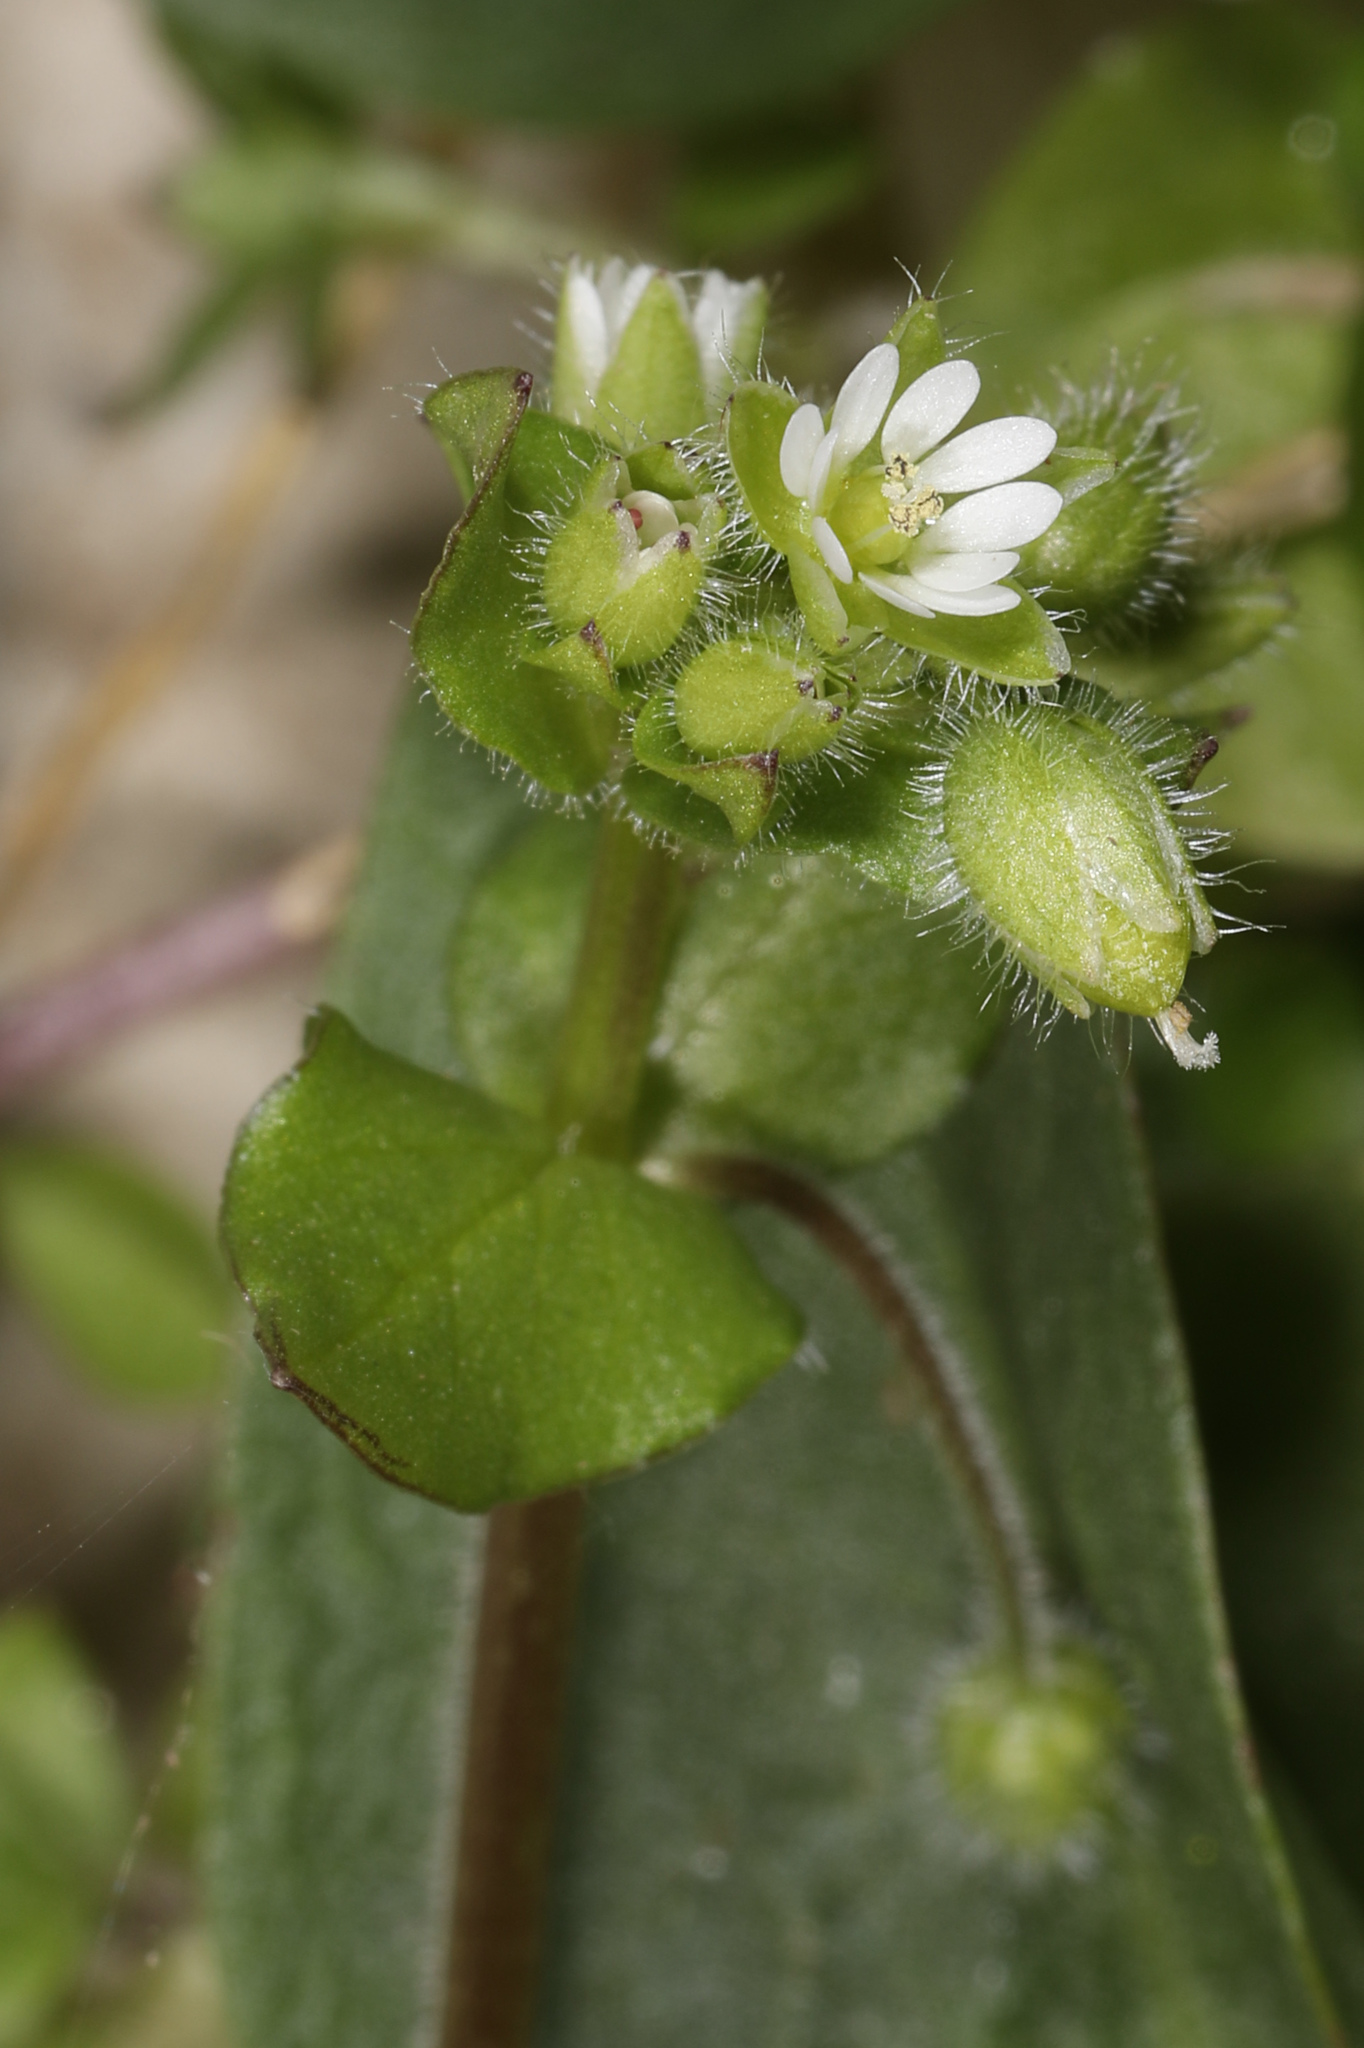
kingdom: Plantae
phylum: Tracheophyta
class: Magnoliopsida
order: Caryophyllales
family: Caryophyllaceae
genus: Stellaria
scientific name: Stellaria media
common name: Common chickweed
